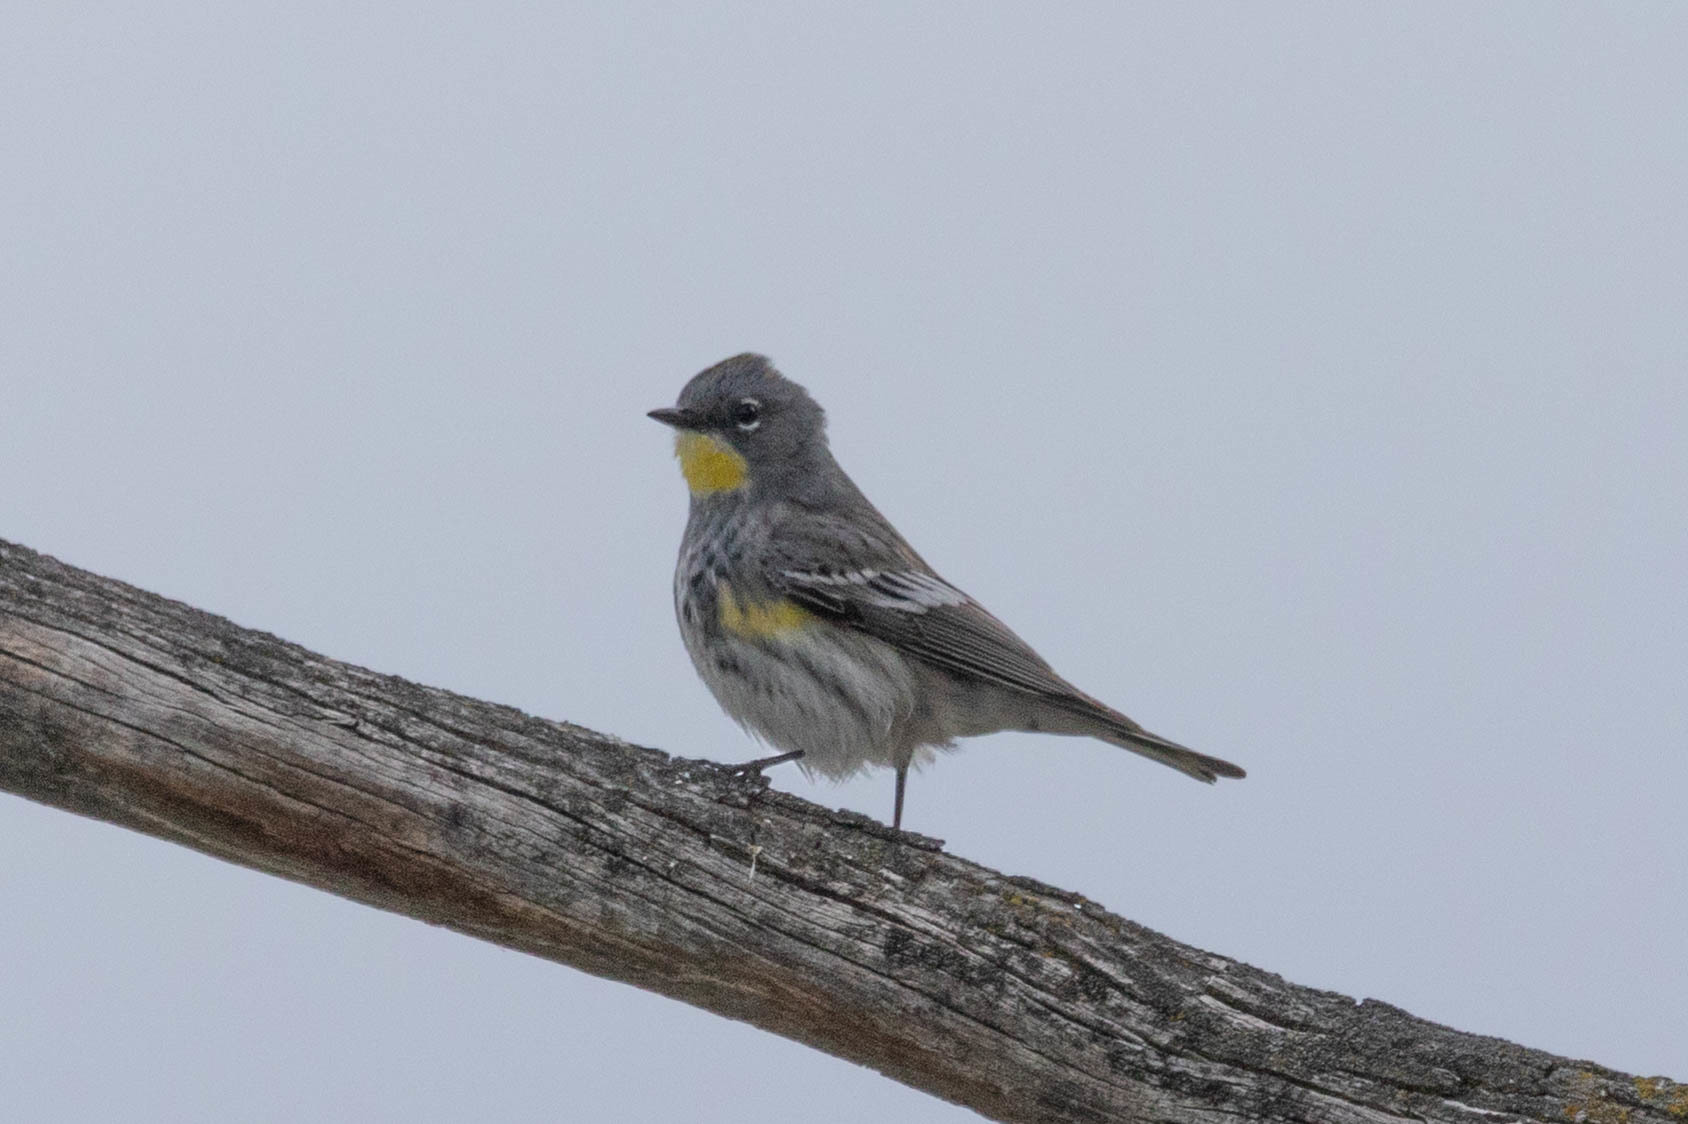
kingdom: Animalia
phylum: Chordata
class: Aves
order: Passeriformes
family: Parulidae
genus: Setophaga
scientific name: Setophaga coronata
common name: Myrtle warbler
